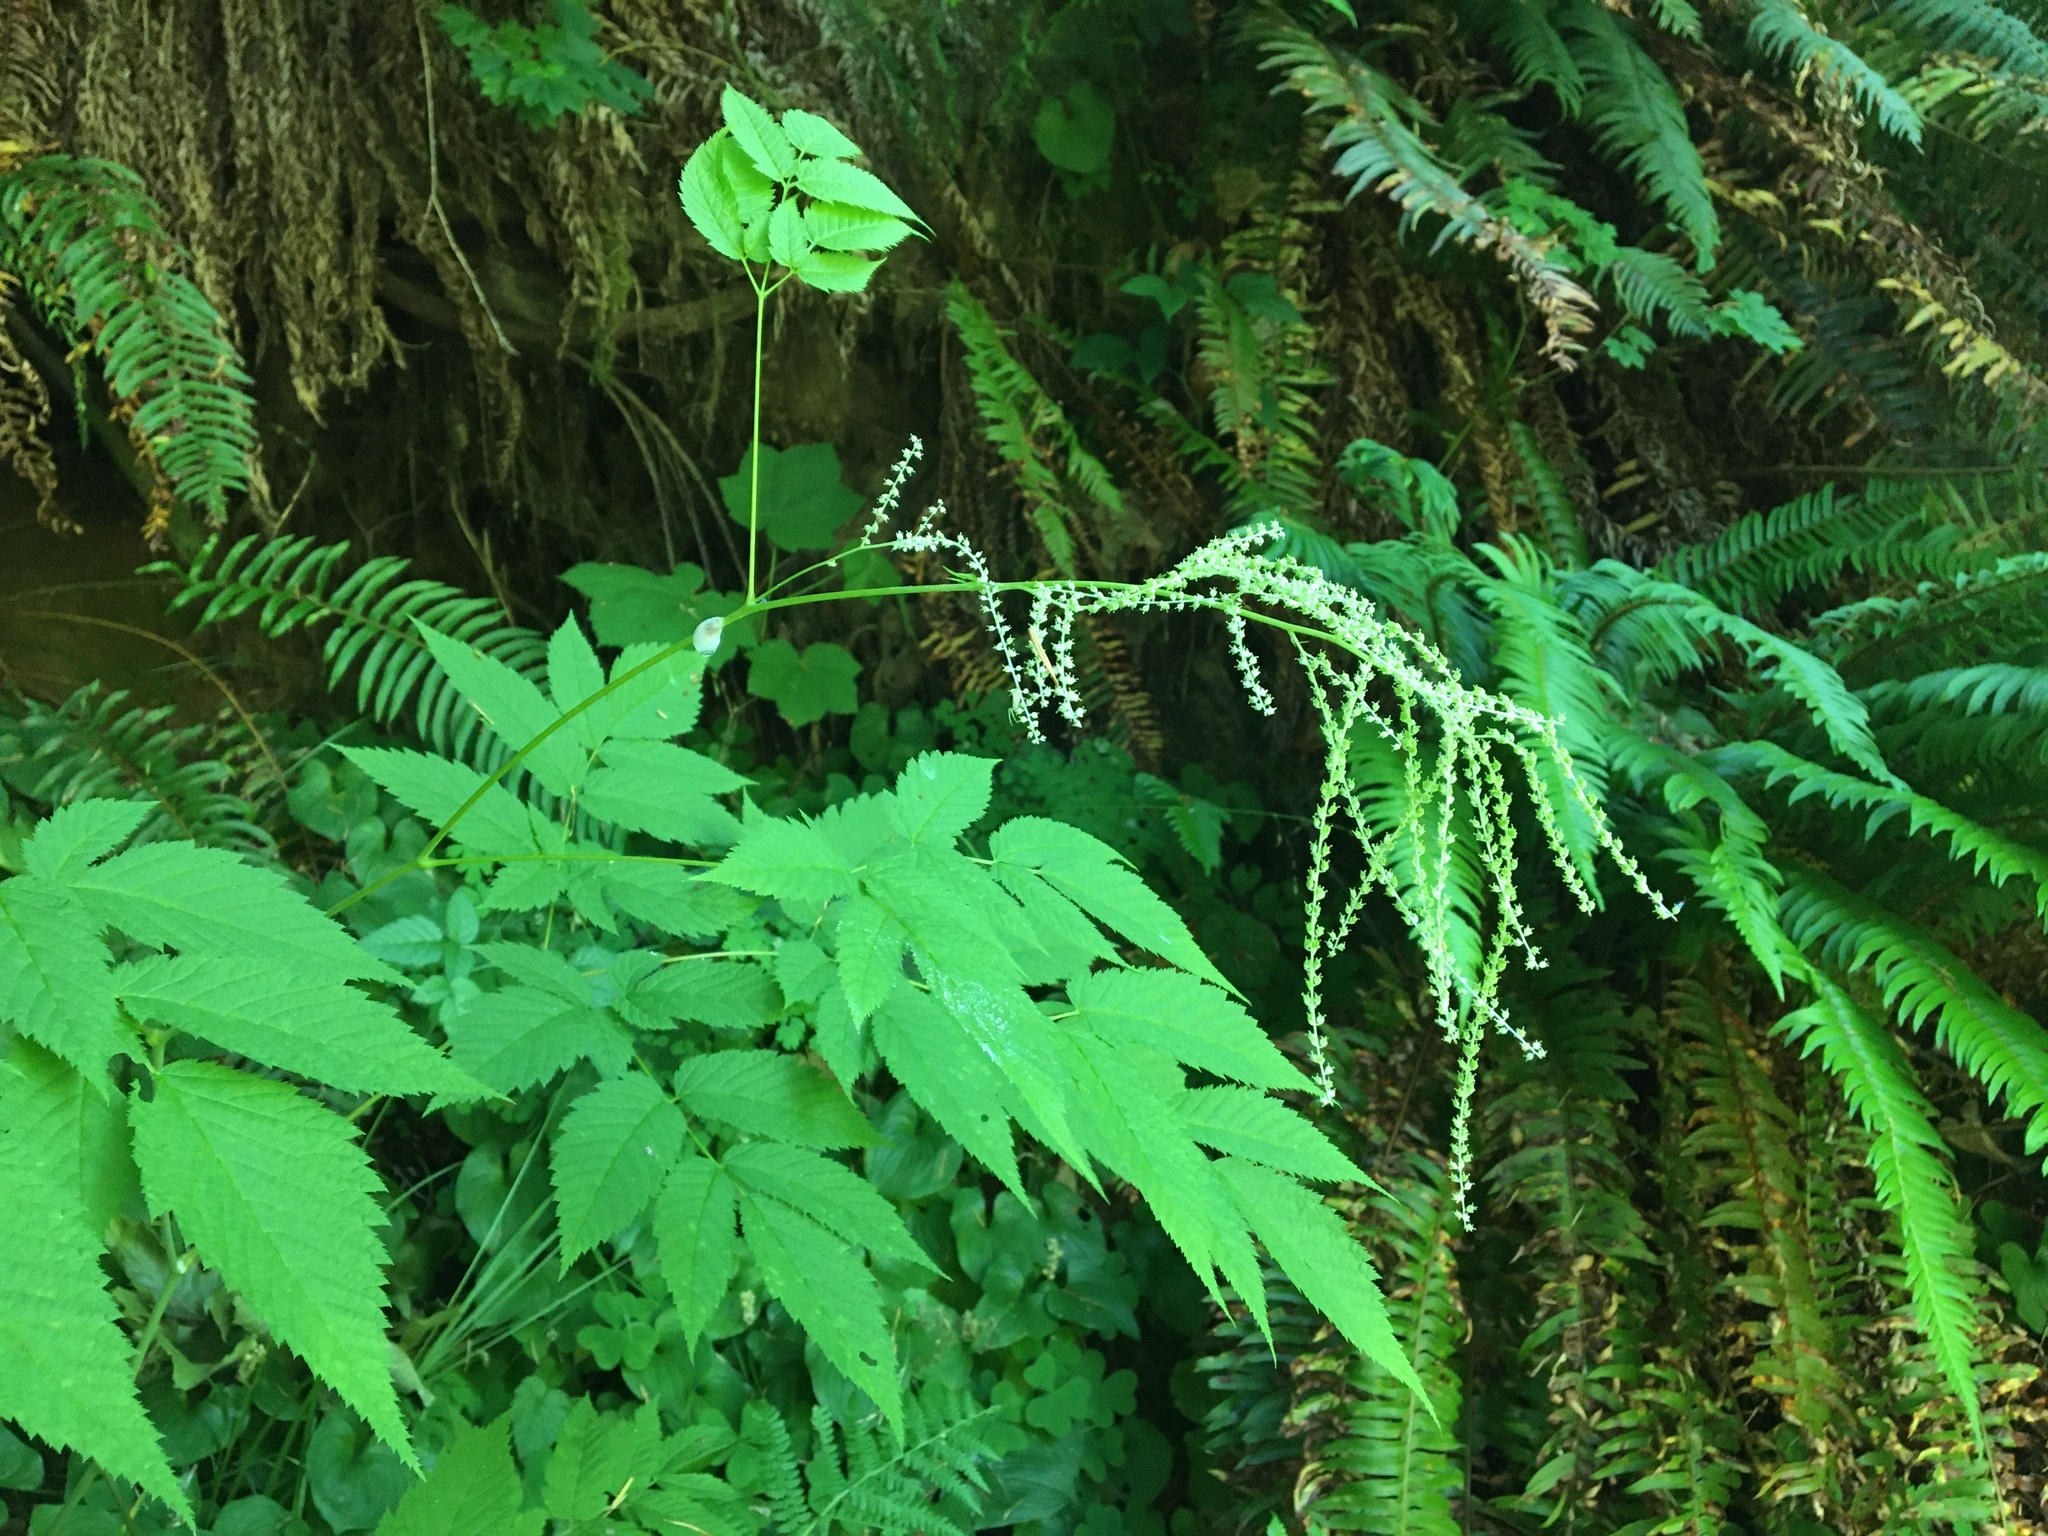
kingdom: Plantae
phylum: Tracheophyta
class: Magnoliopsida
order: Rosales
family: Rosaceae
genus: Aruncus
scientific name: Aruncus dioicus
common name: Buck's-beard
